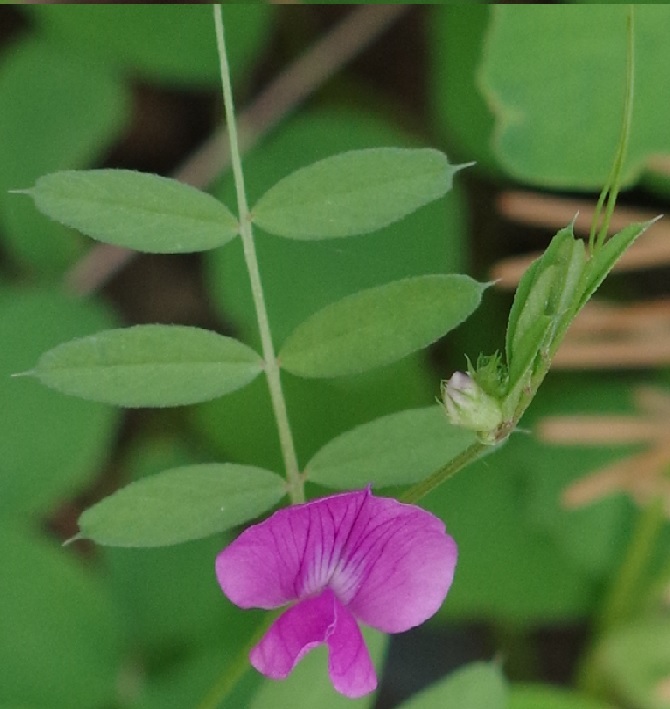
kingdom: Plantae
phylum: Tracheophyta
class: Magnoliopsida
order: Fabales
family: Fabaceae
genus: Vicia
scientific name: Vicia sativa
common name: Garden vetch
